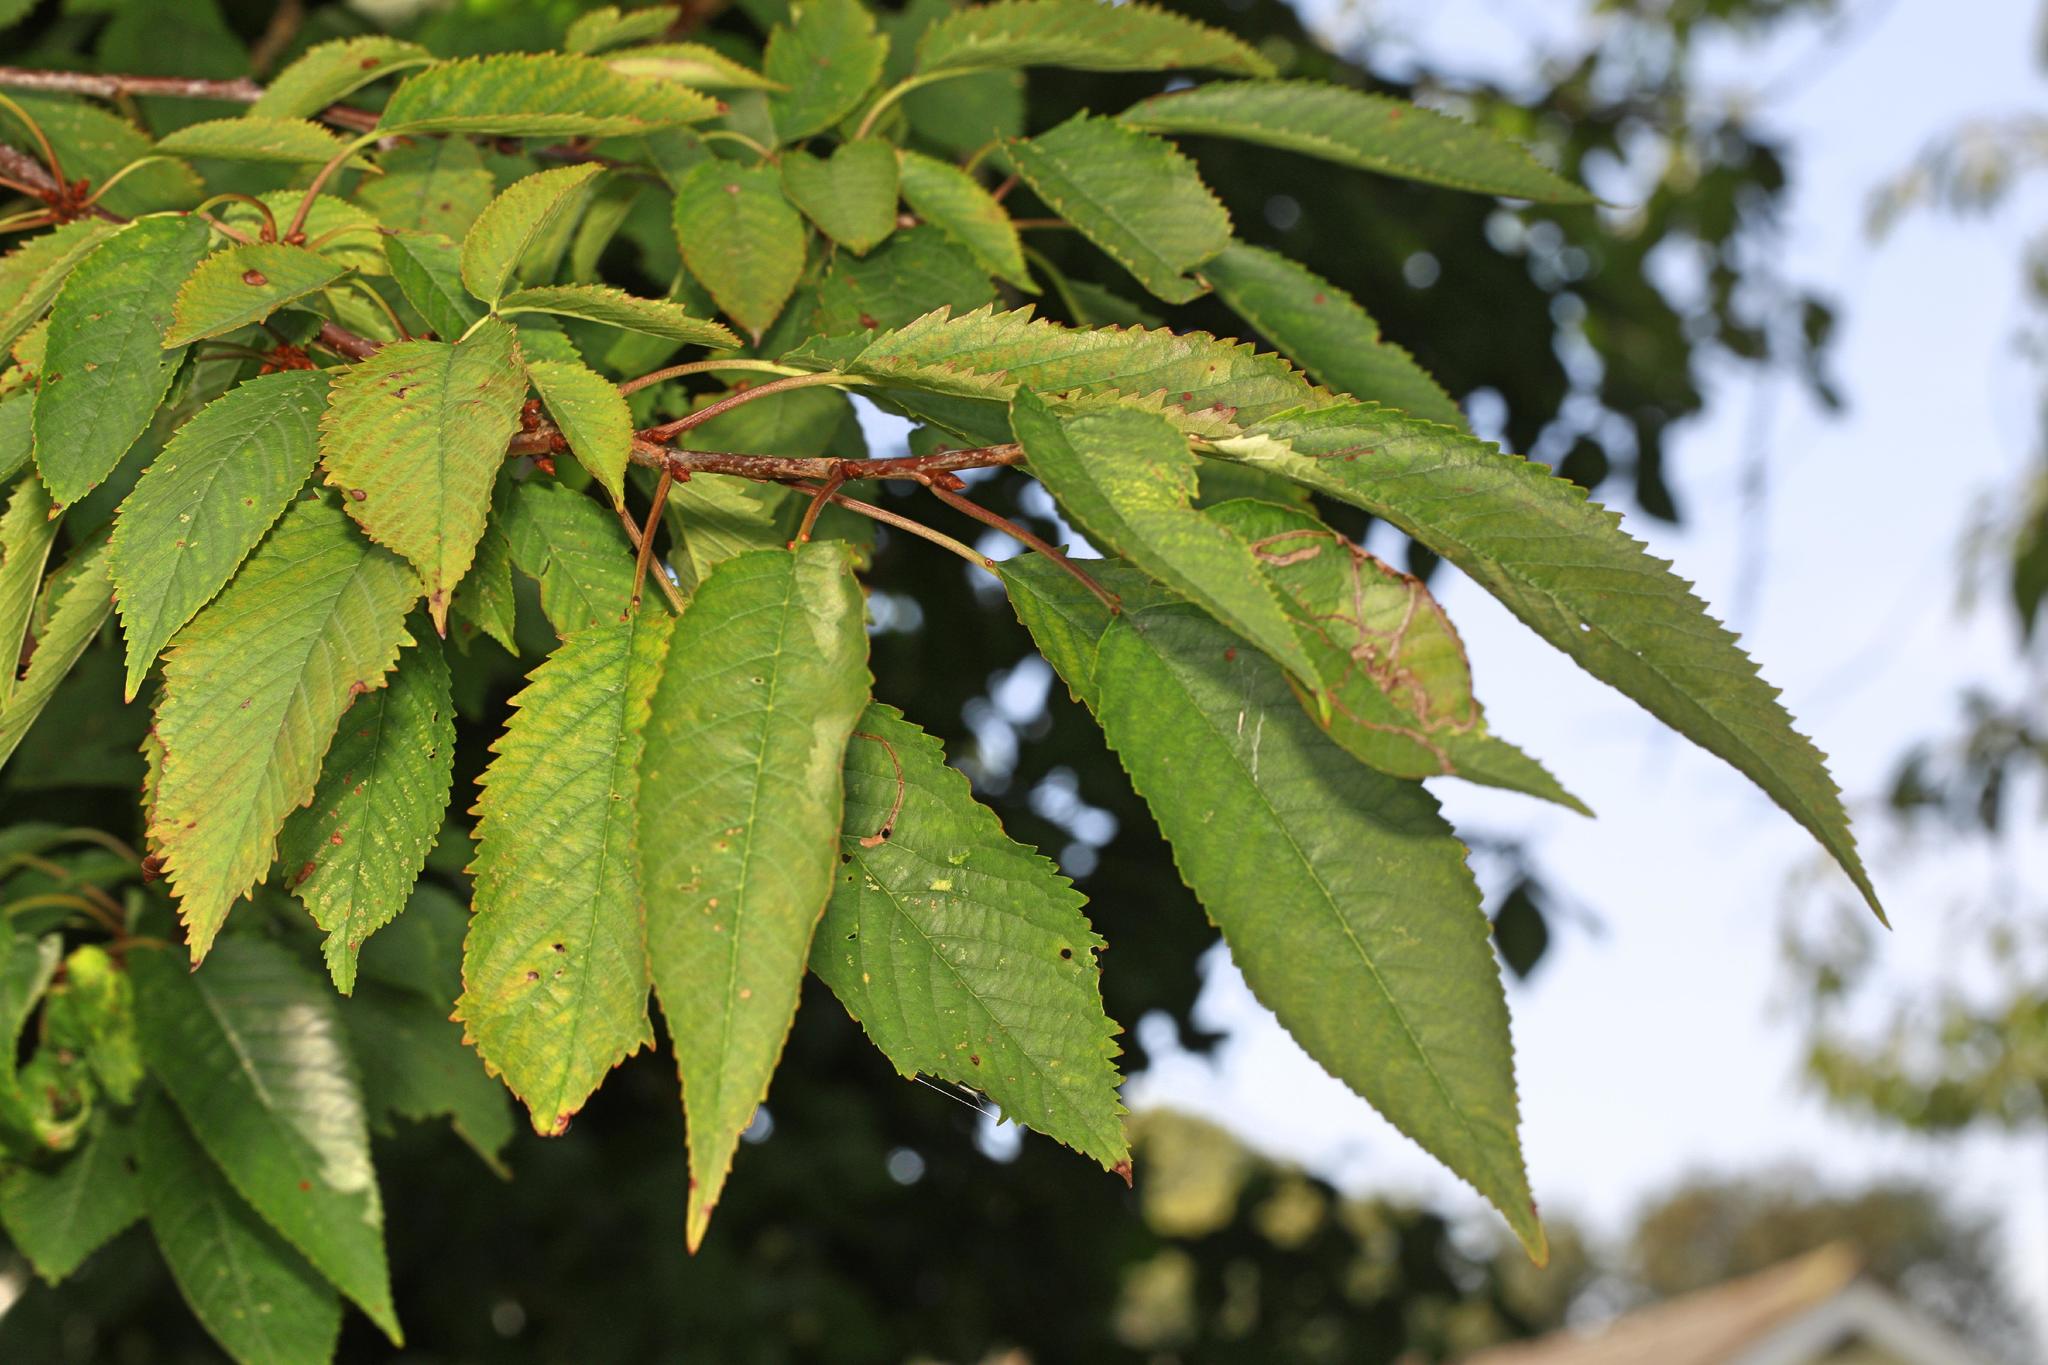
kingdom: Plantae
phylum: Tracheophyta
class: Magnoliopsida
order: Rosales
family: Rosaceae
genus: Prunus
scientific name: Prunus avium
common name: Sweet cherry
